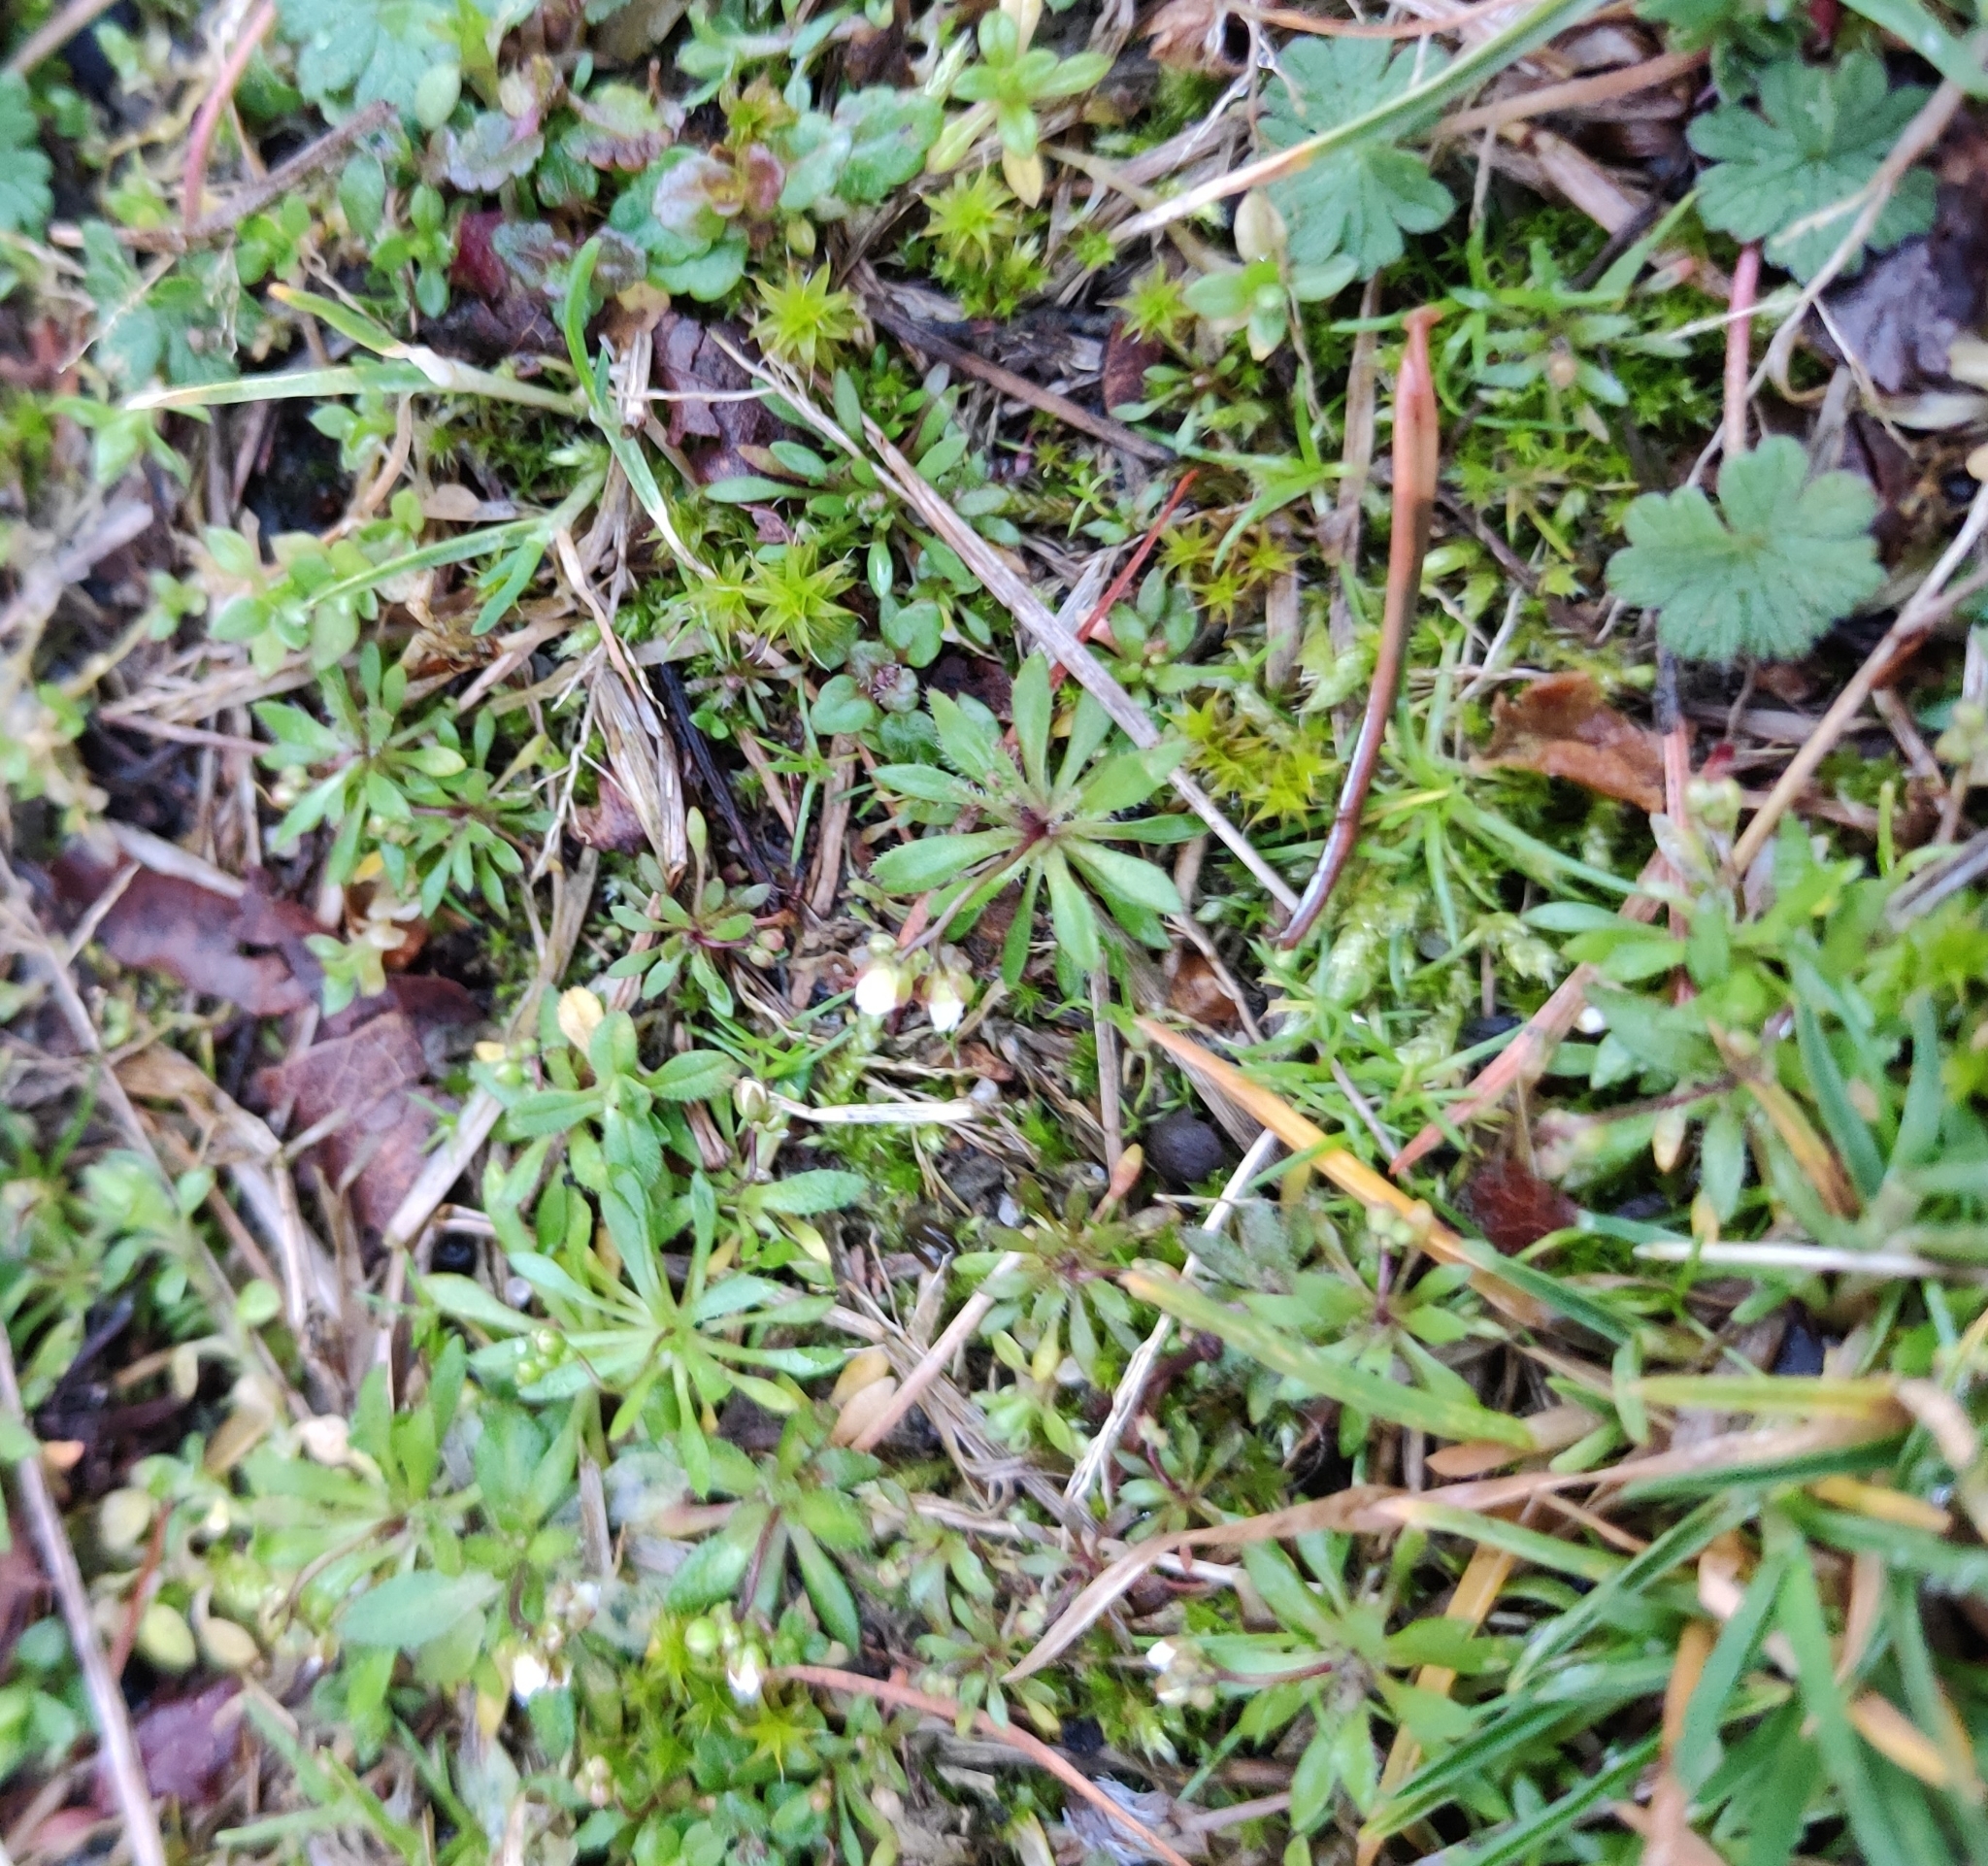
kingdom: Plantae
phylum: Tracheophyta
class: Magnoliopsida
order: Brassicales
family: Brassicaceae
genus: Draba
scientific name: Draba verna
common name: Spring draba
